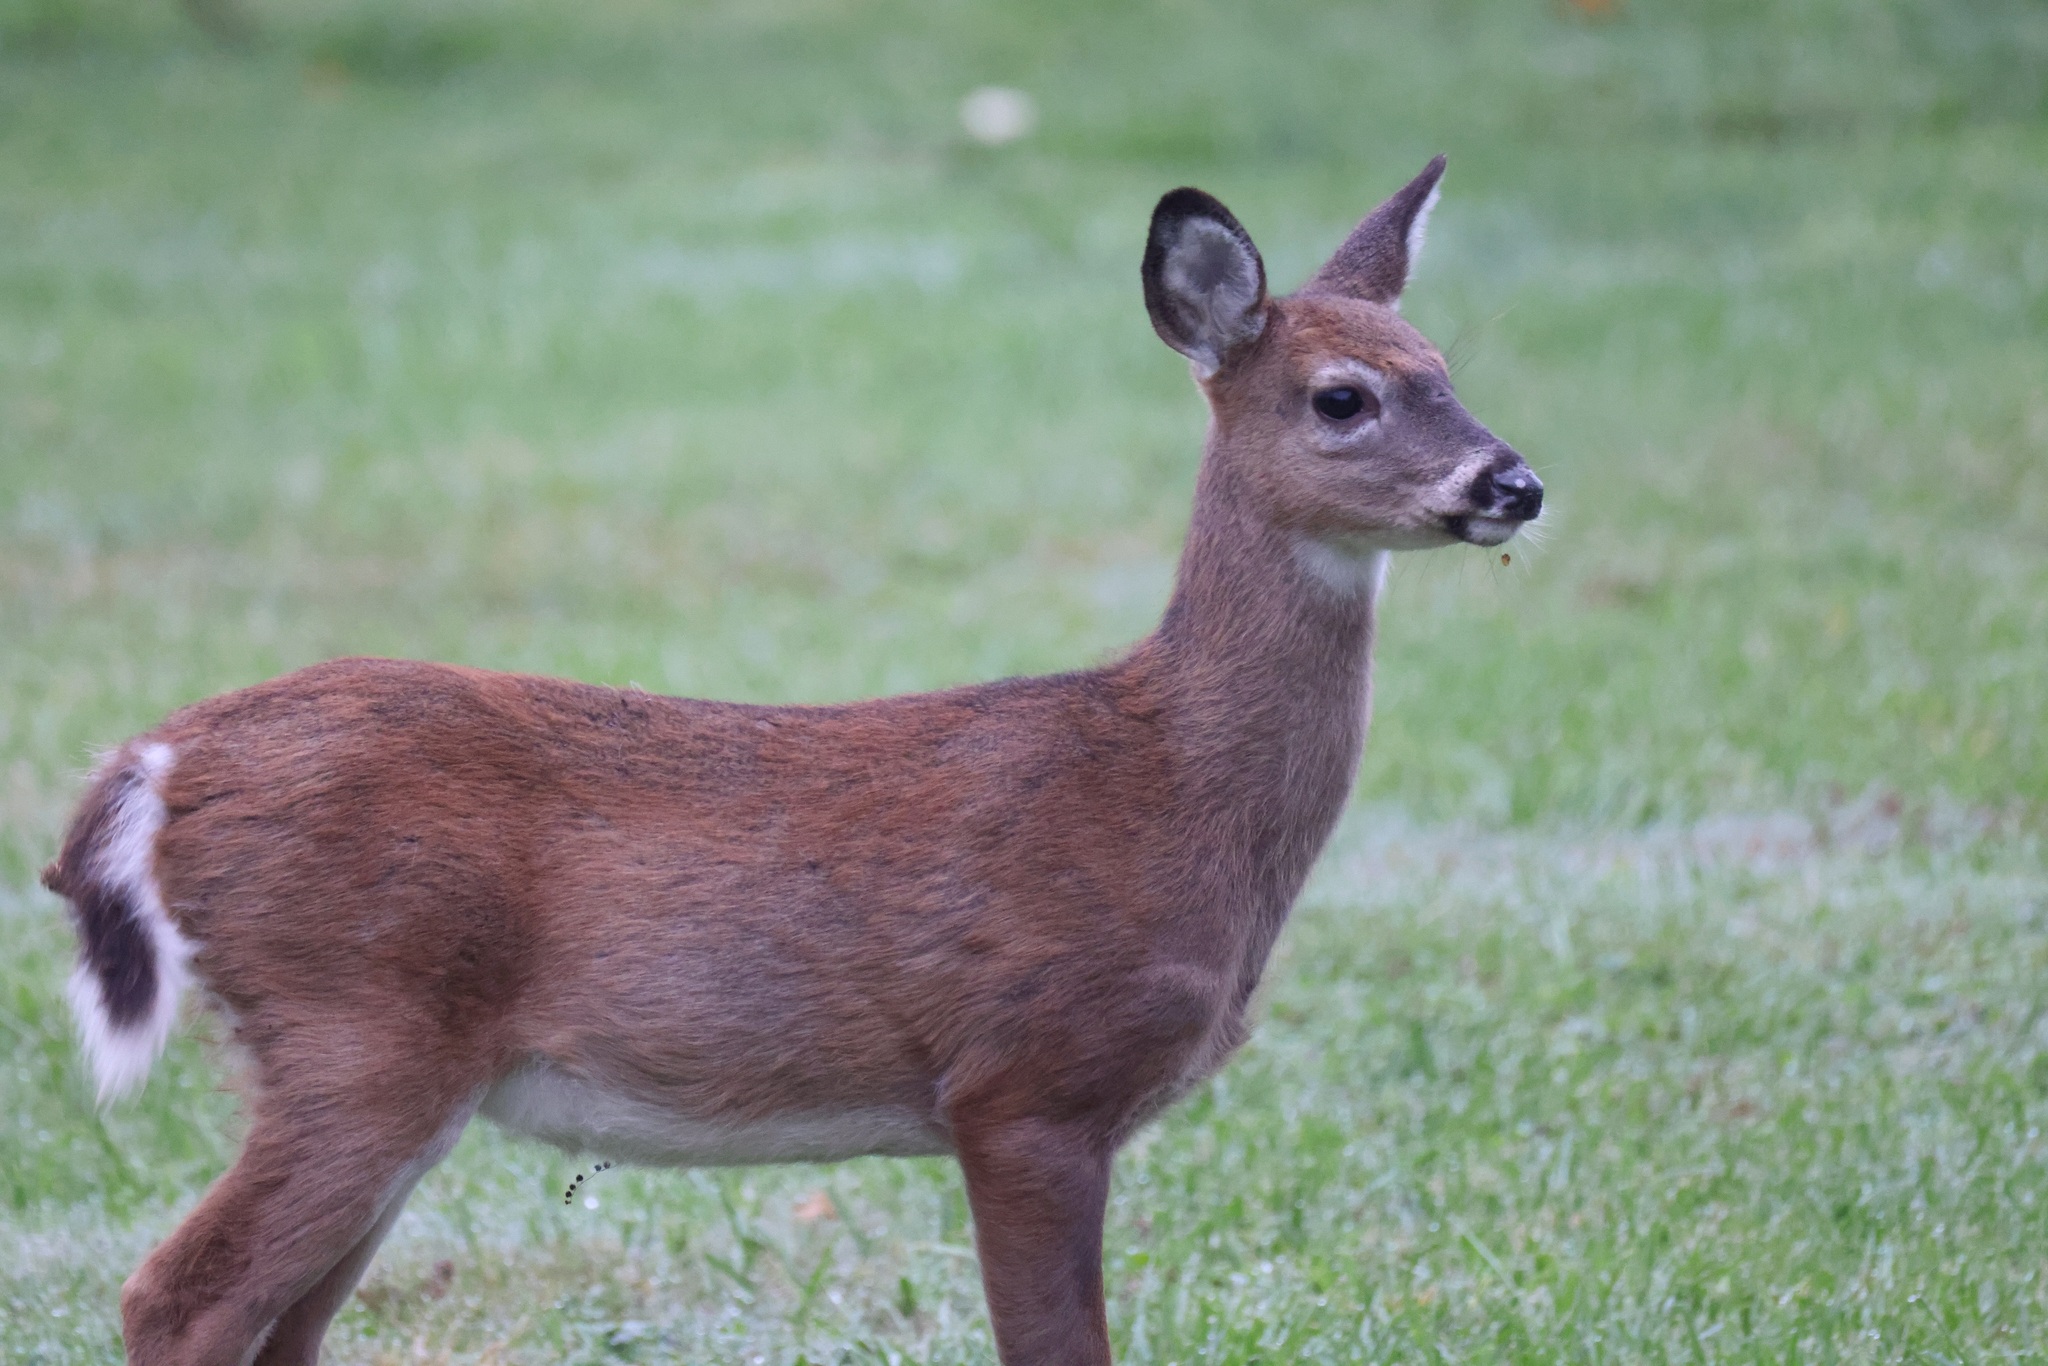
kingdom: Animalia
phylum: Chordata
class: Mammalia
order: Artiodactyla
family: Cervidae
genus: Odocoileus
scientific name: Odocoileus virginianus
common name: White-tailed deer
